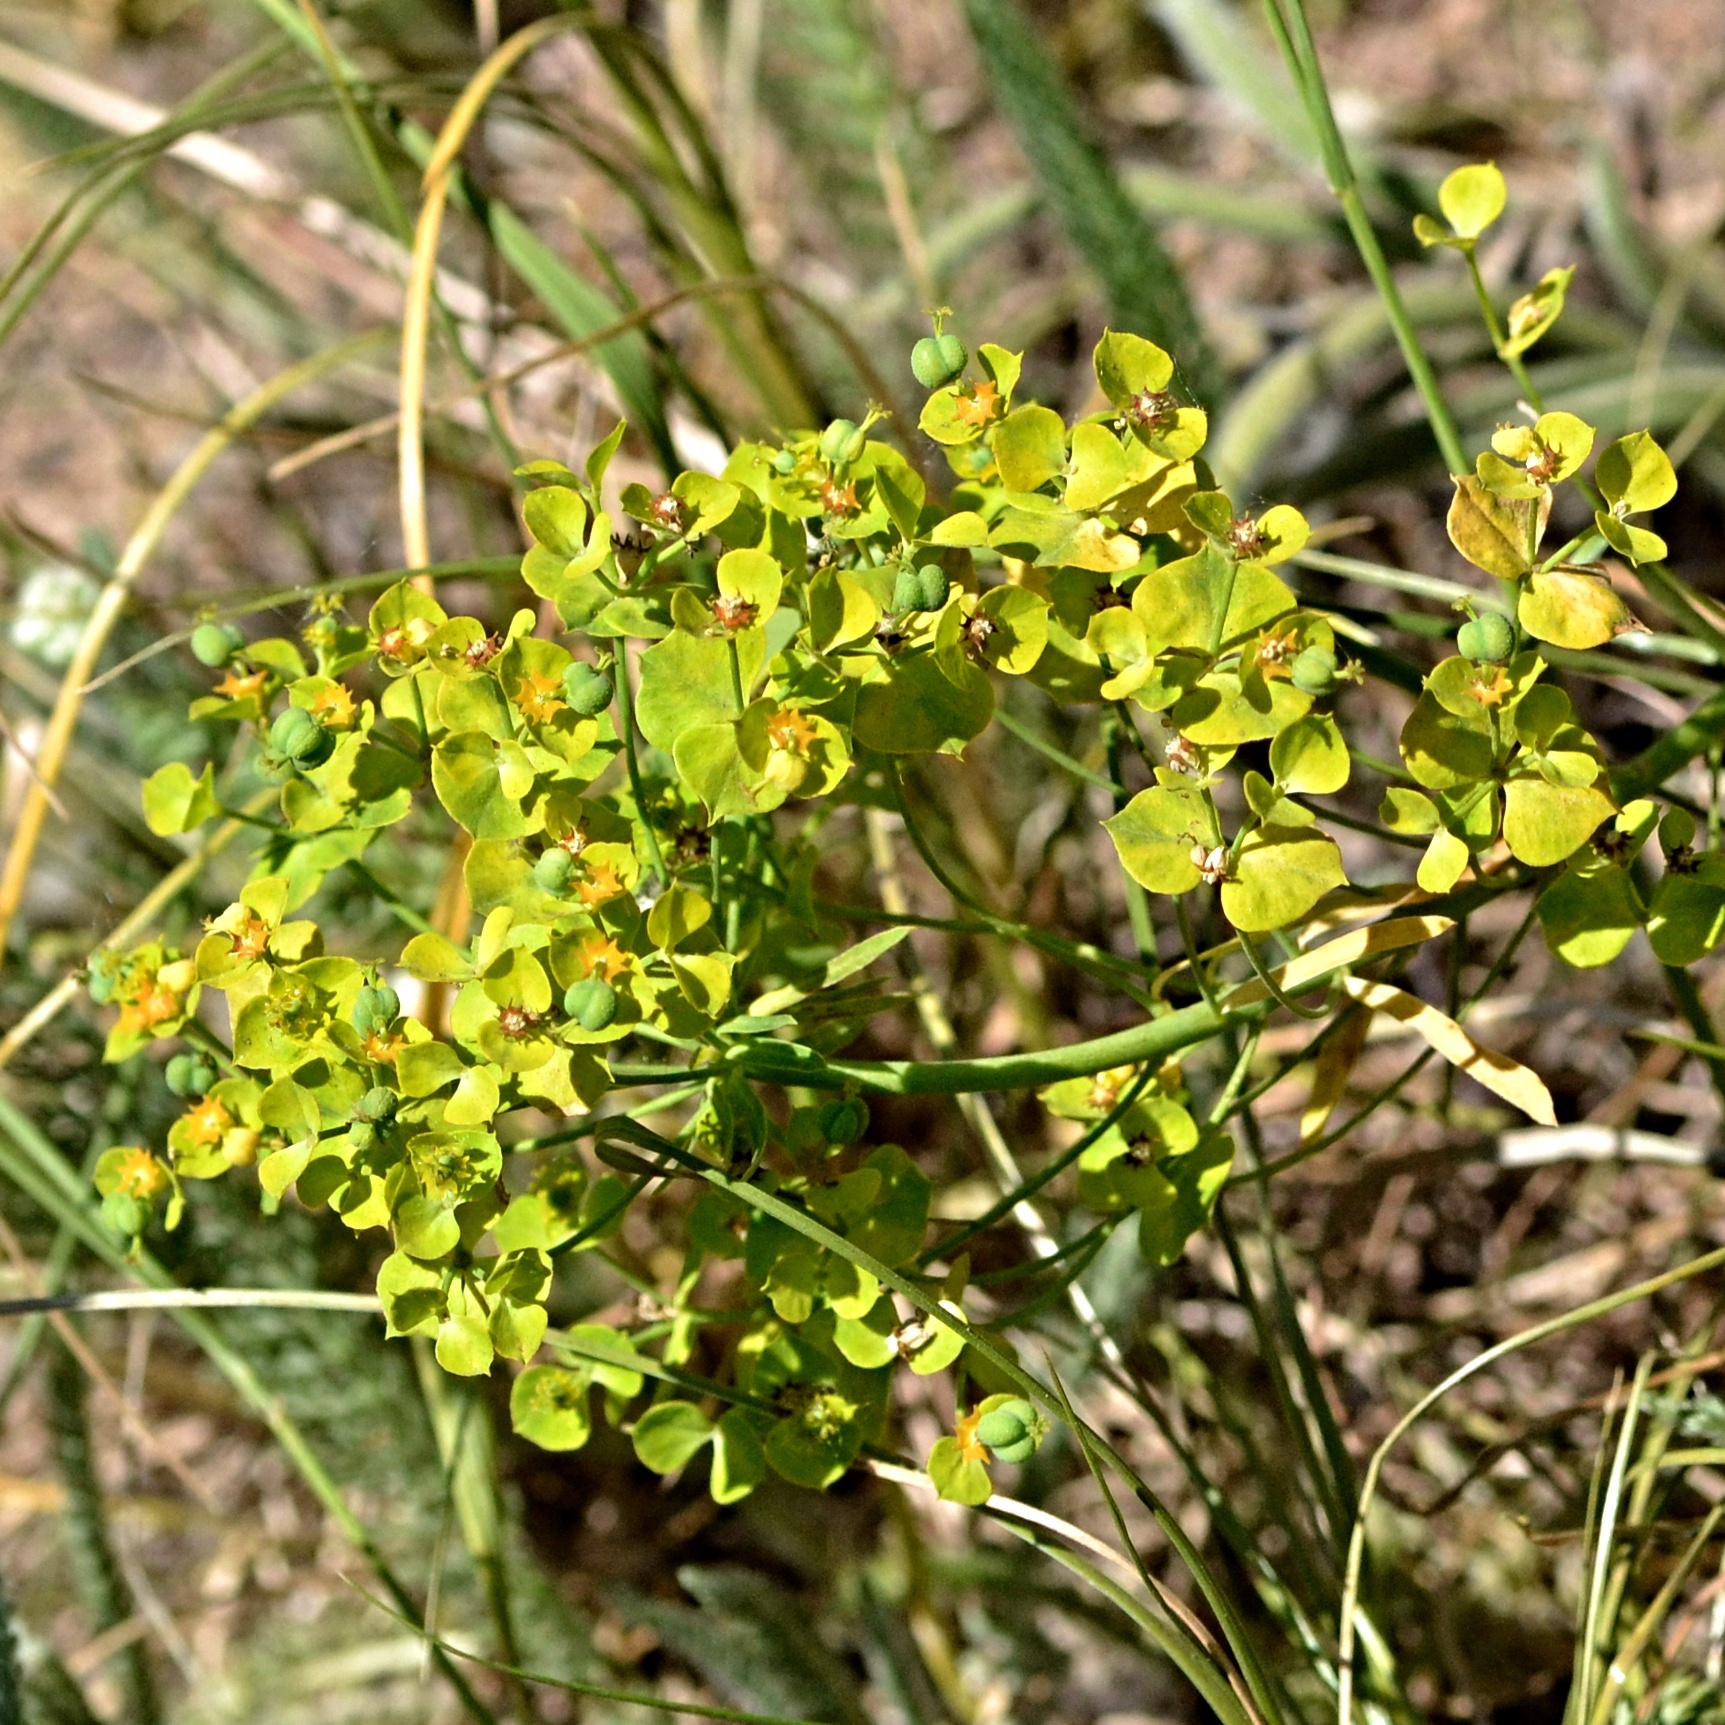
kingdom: Plantae
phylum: Tracheophyta
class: Magnoliopsida
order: Malpighiales
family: Euphorbiaceae
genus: Euphorbia
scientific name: Euphorbia esula
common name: Leafy spurge
